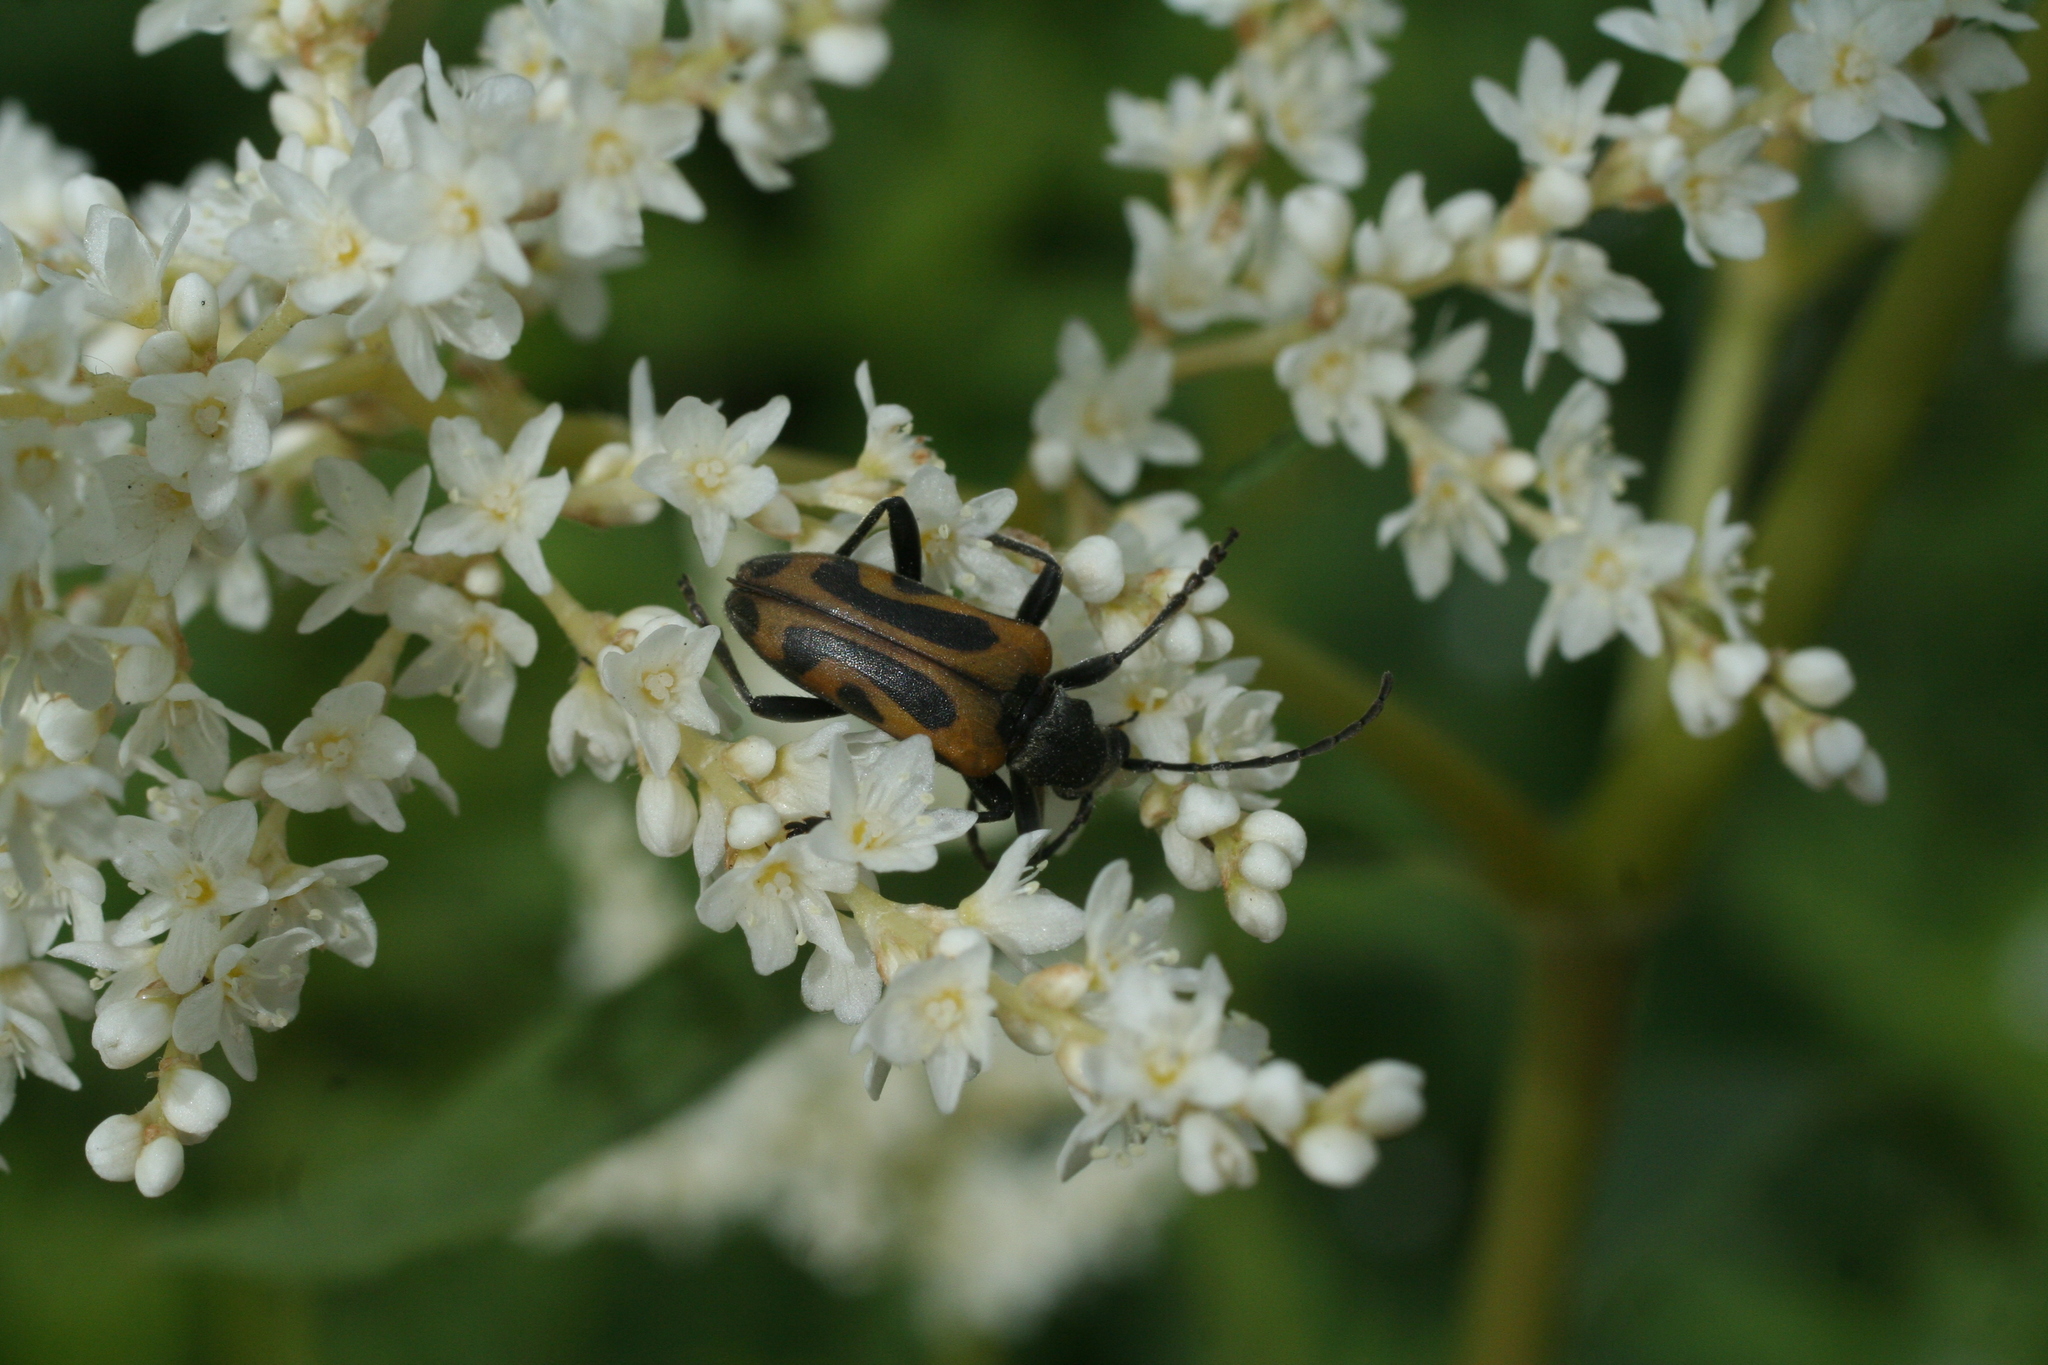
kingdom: Animalia
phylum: Arthropoda
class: Insecta
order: Coleoptera
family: Cerambycidae
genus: Brachyta
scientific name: Brachyta interrogationis
